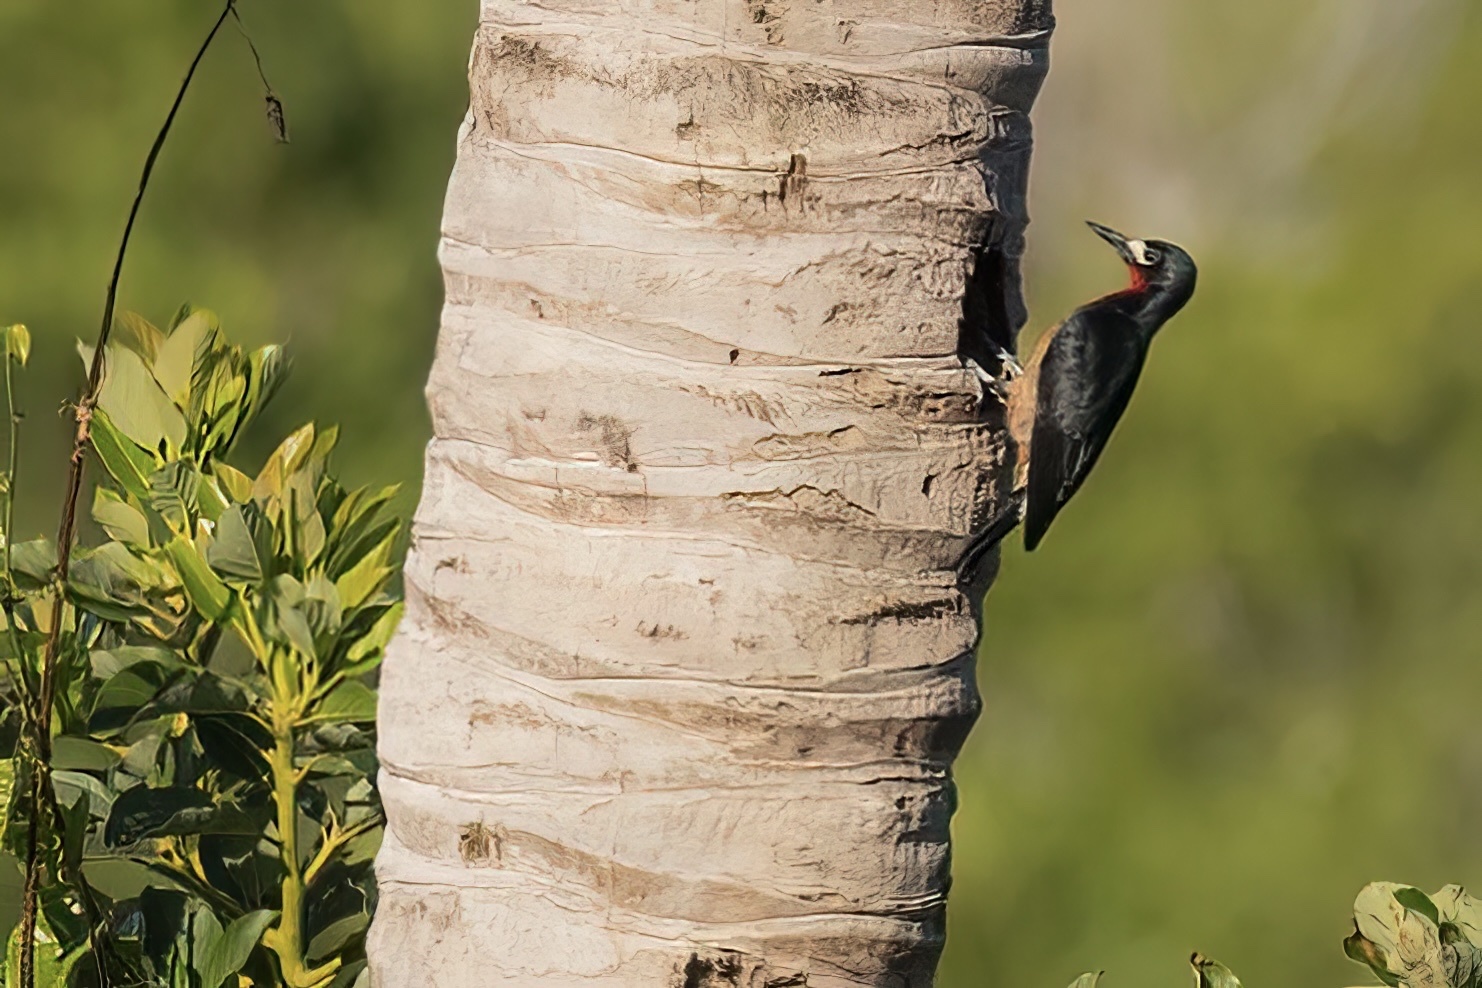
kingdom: Animalia
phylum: Chordata
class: Aves
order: Piciformes
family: Picidae
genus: Melanerpes
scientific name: Melanerpes portoricensis
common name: Puerto rican woodpecker
